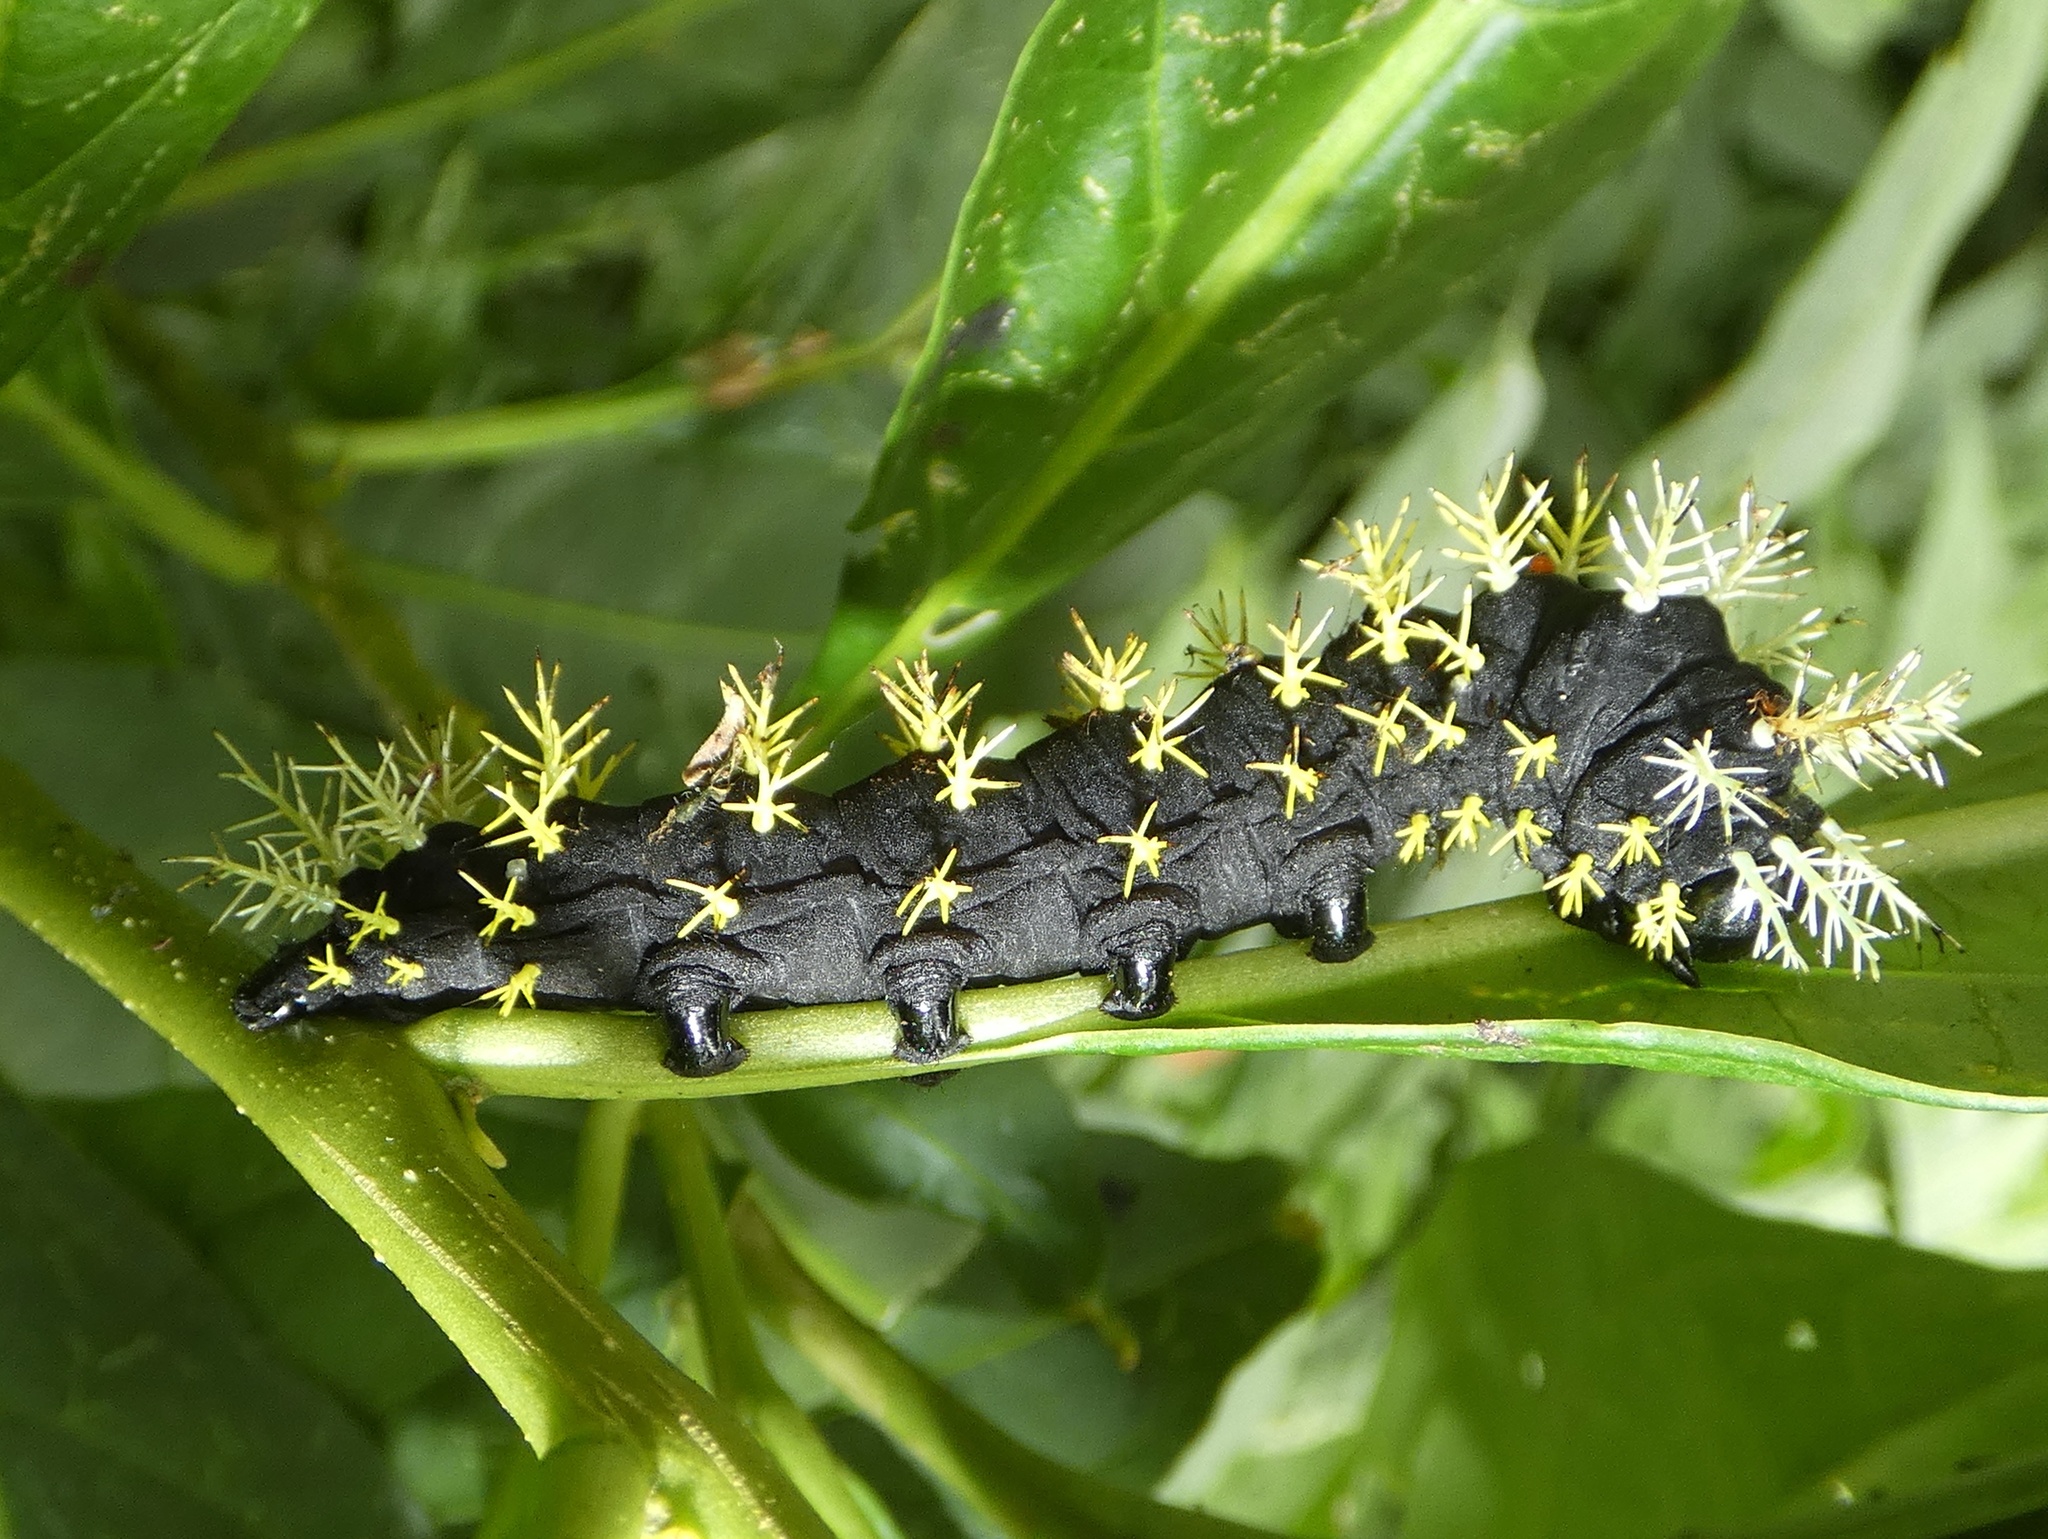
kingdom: Animalia
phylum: Arthropoda
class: Insecta
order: Lepidoptera
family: Nymphalidae
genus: Colobura
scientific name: Colobura dirce
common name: Dirce beauty
